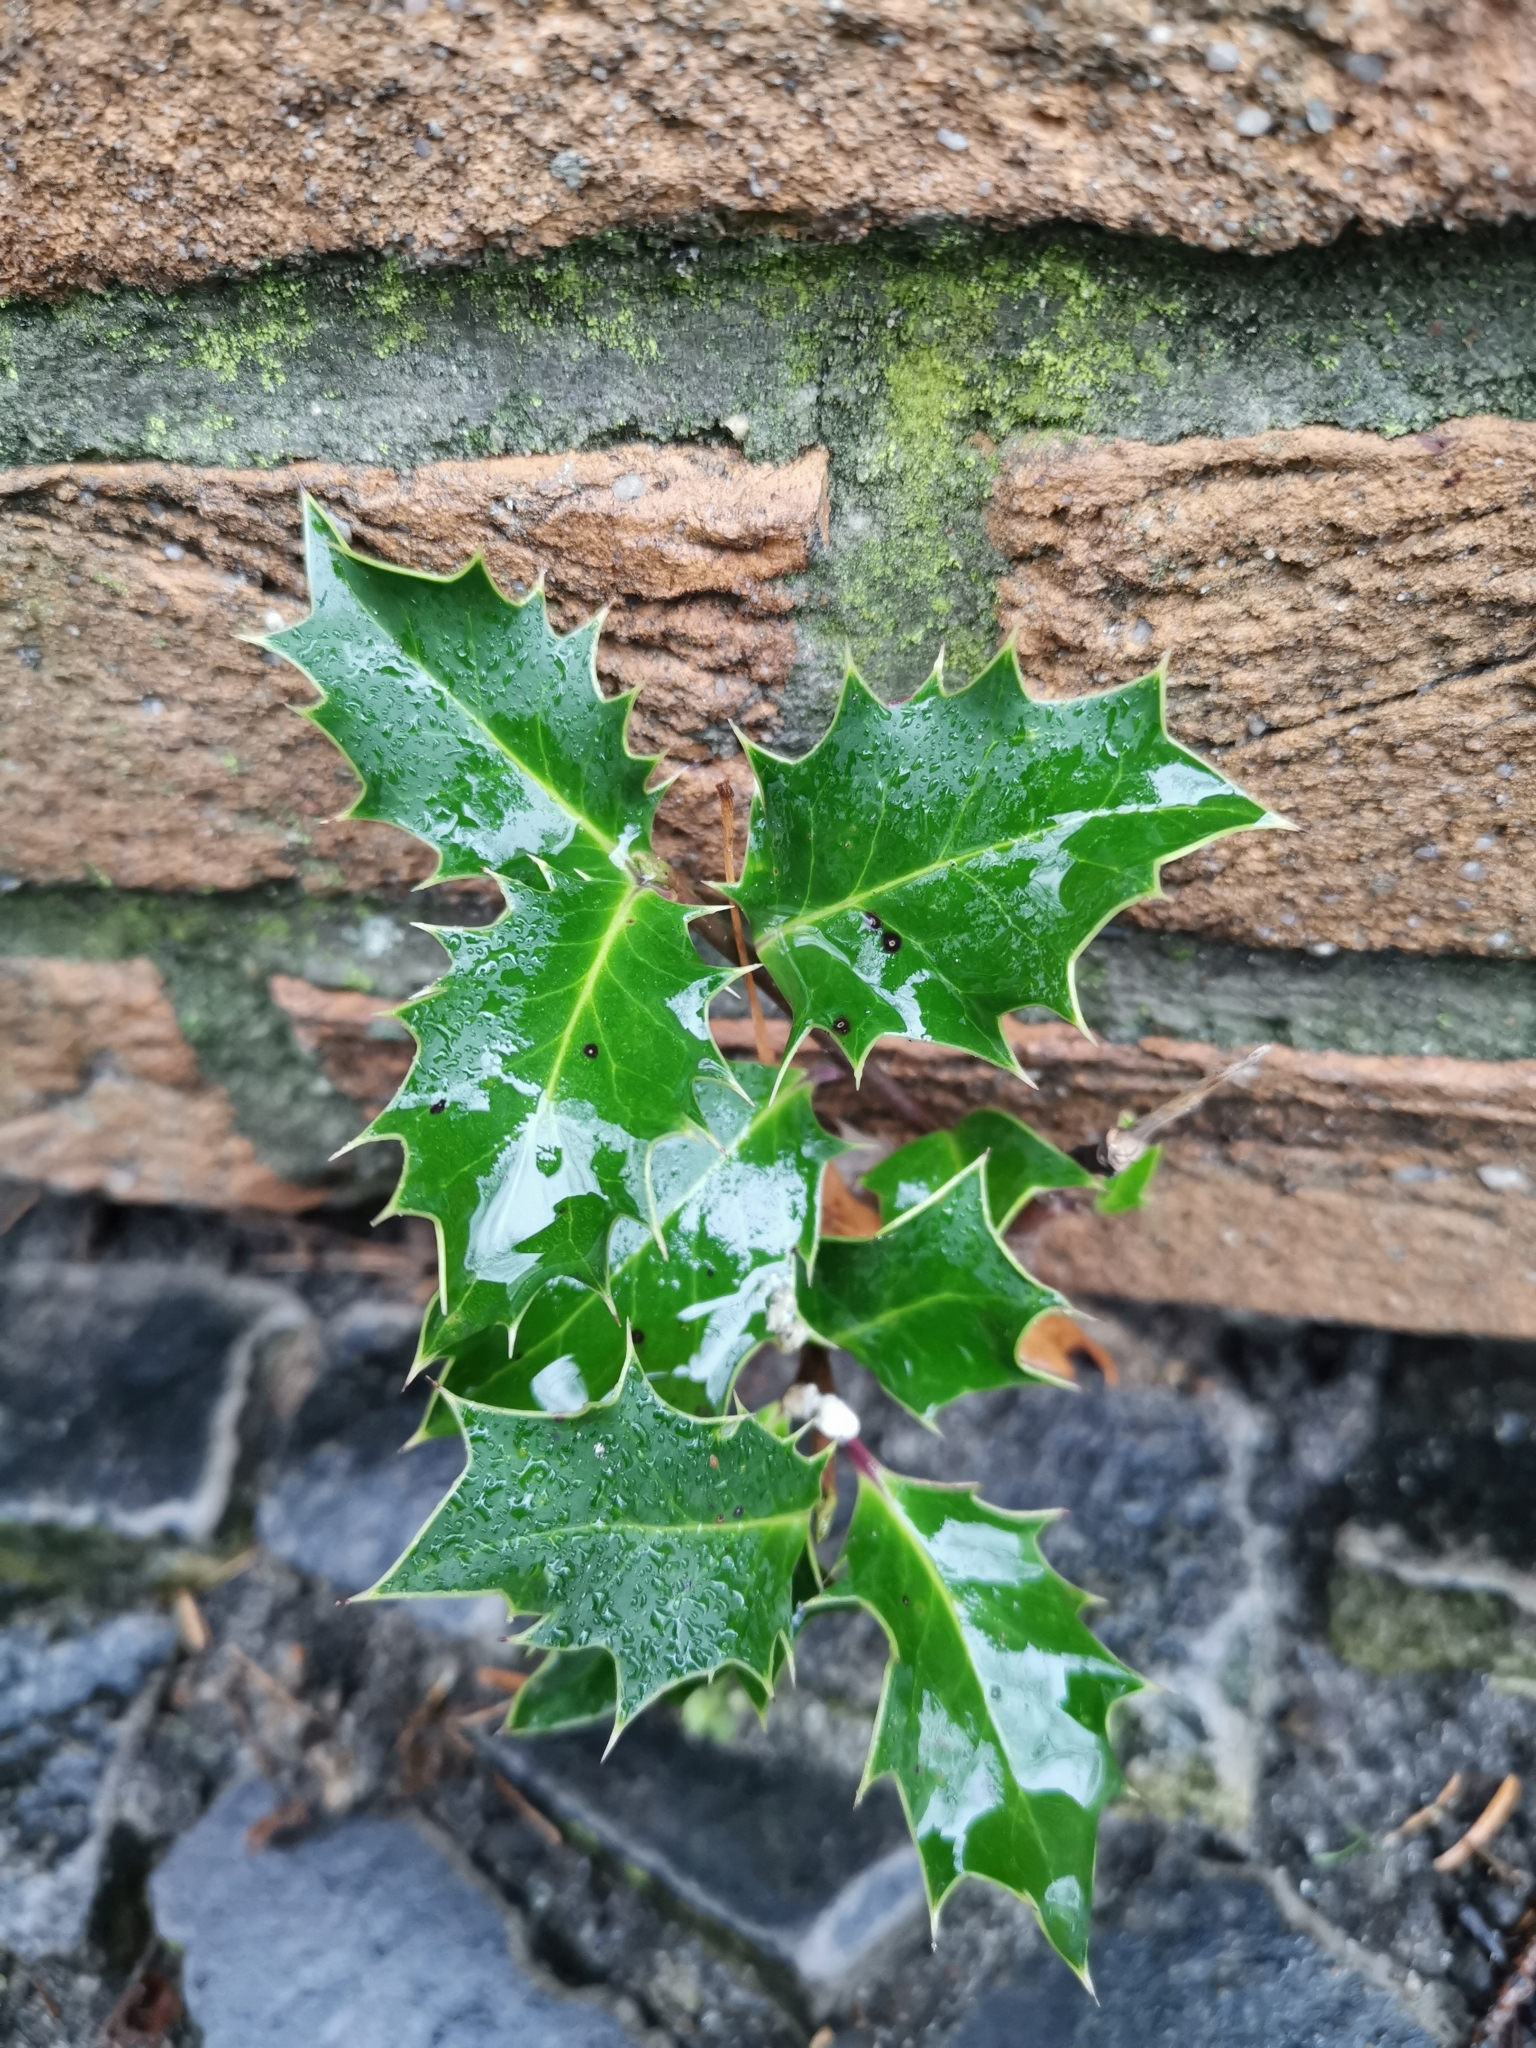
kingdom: Plantae
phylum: Tracheophyta
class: Magnoliopsida
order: Aquifoliales
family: Aquifoliaceae
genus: Ilex
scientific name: Ilex aquifolium
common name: English holly
